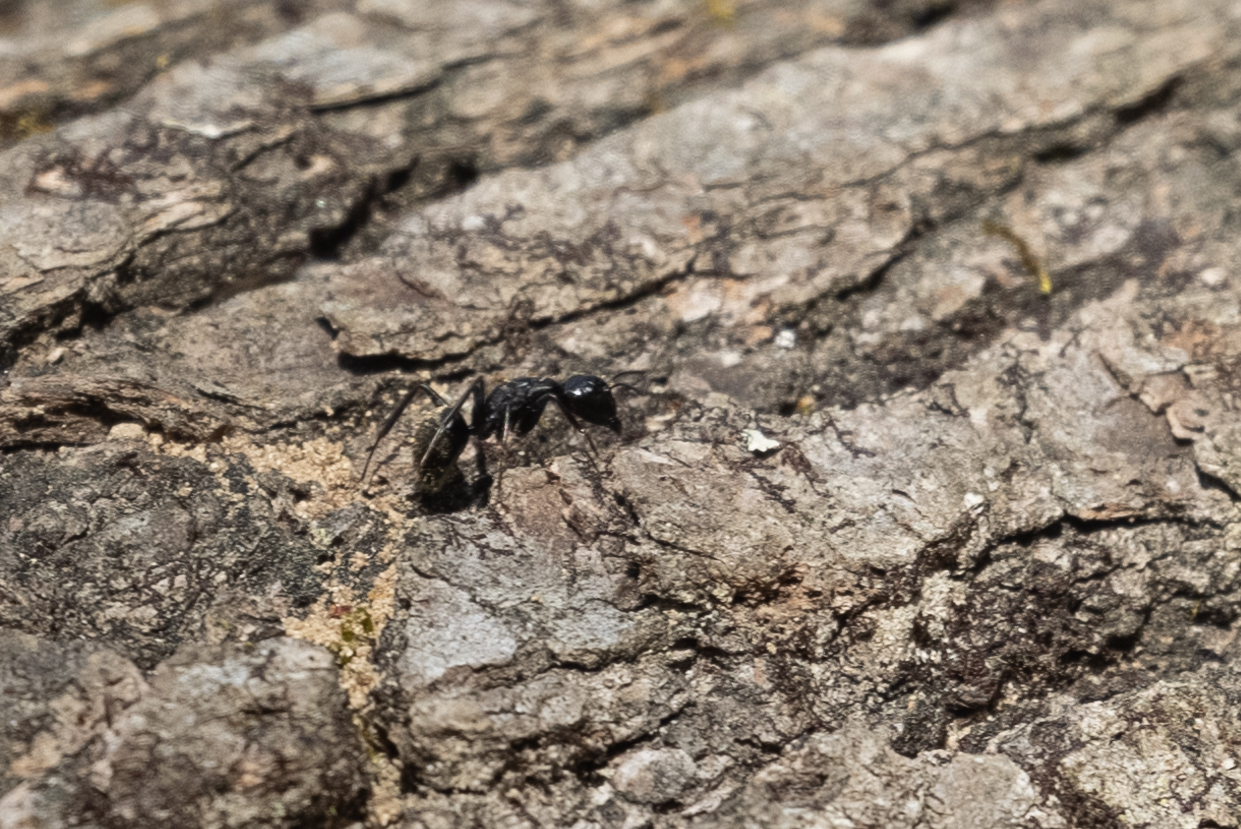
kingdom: Animalia
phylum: Arthropoda
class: Insecta
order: Hymenoptera
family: Formicidae
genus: Camponotus
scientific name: Camponotus pennsylvanicus
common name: Black carpenter ant
